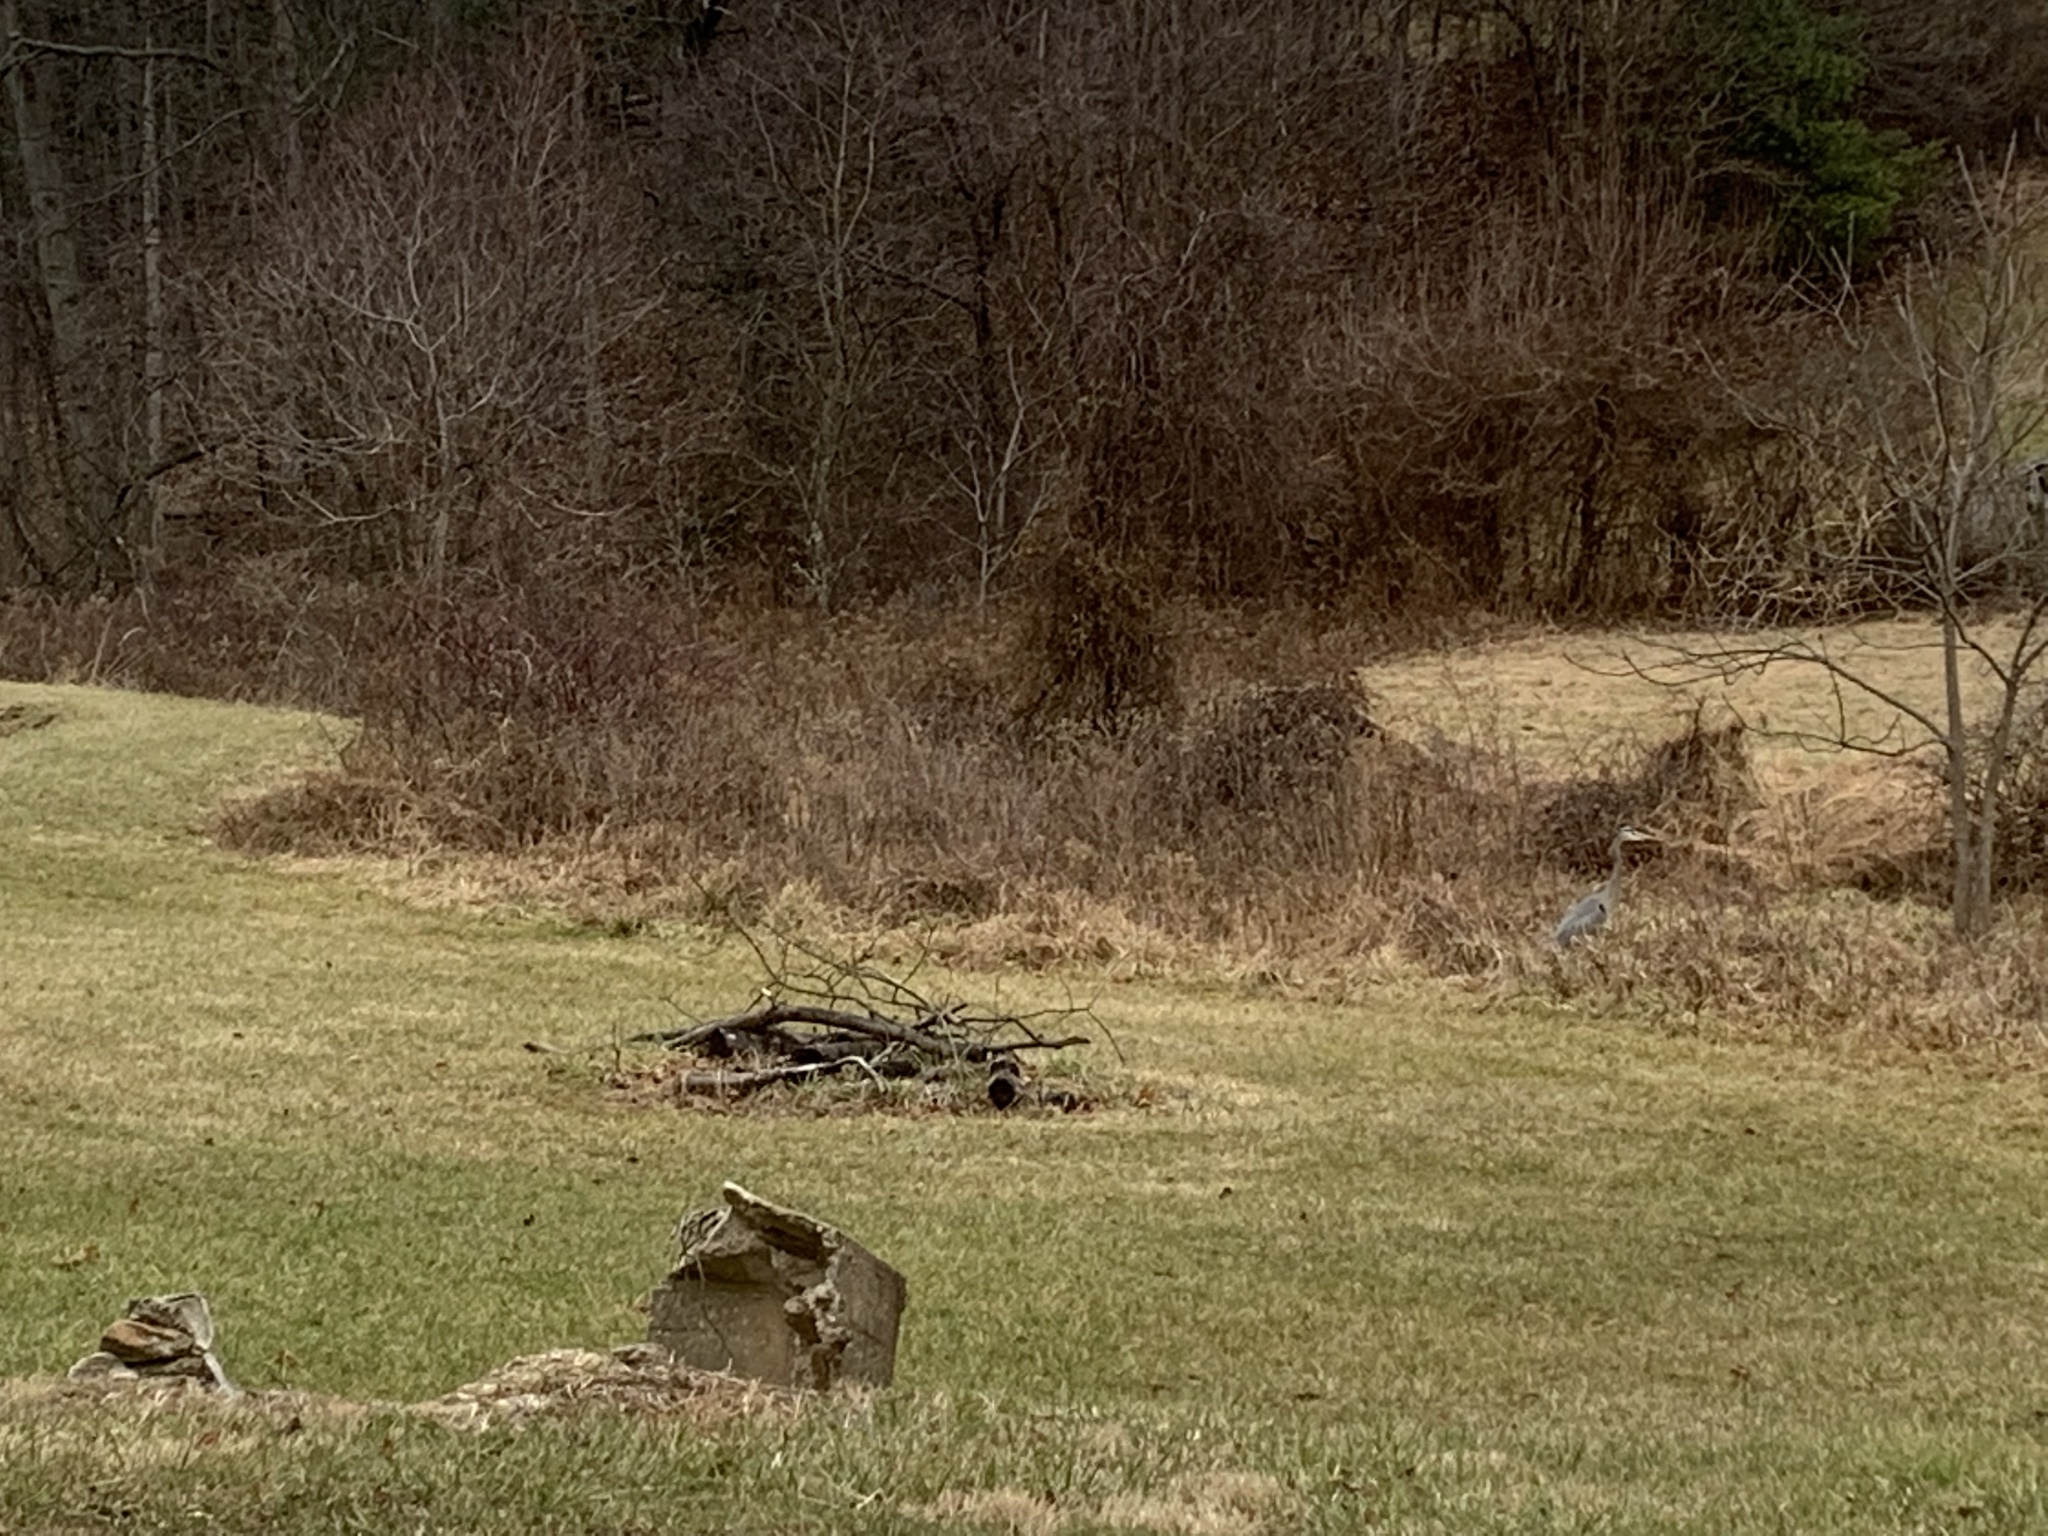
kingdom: Animalia
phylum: Chordata
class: Aves
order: Pelecaniformes
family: Ardeidae
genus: Ardea
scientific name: Ardea herodias
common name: Great blue heron
